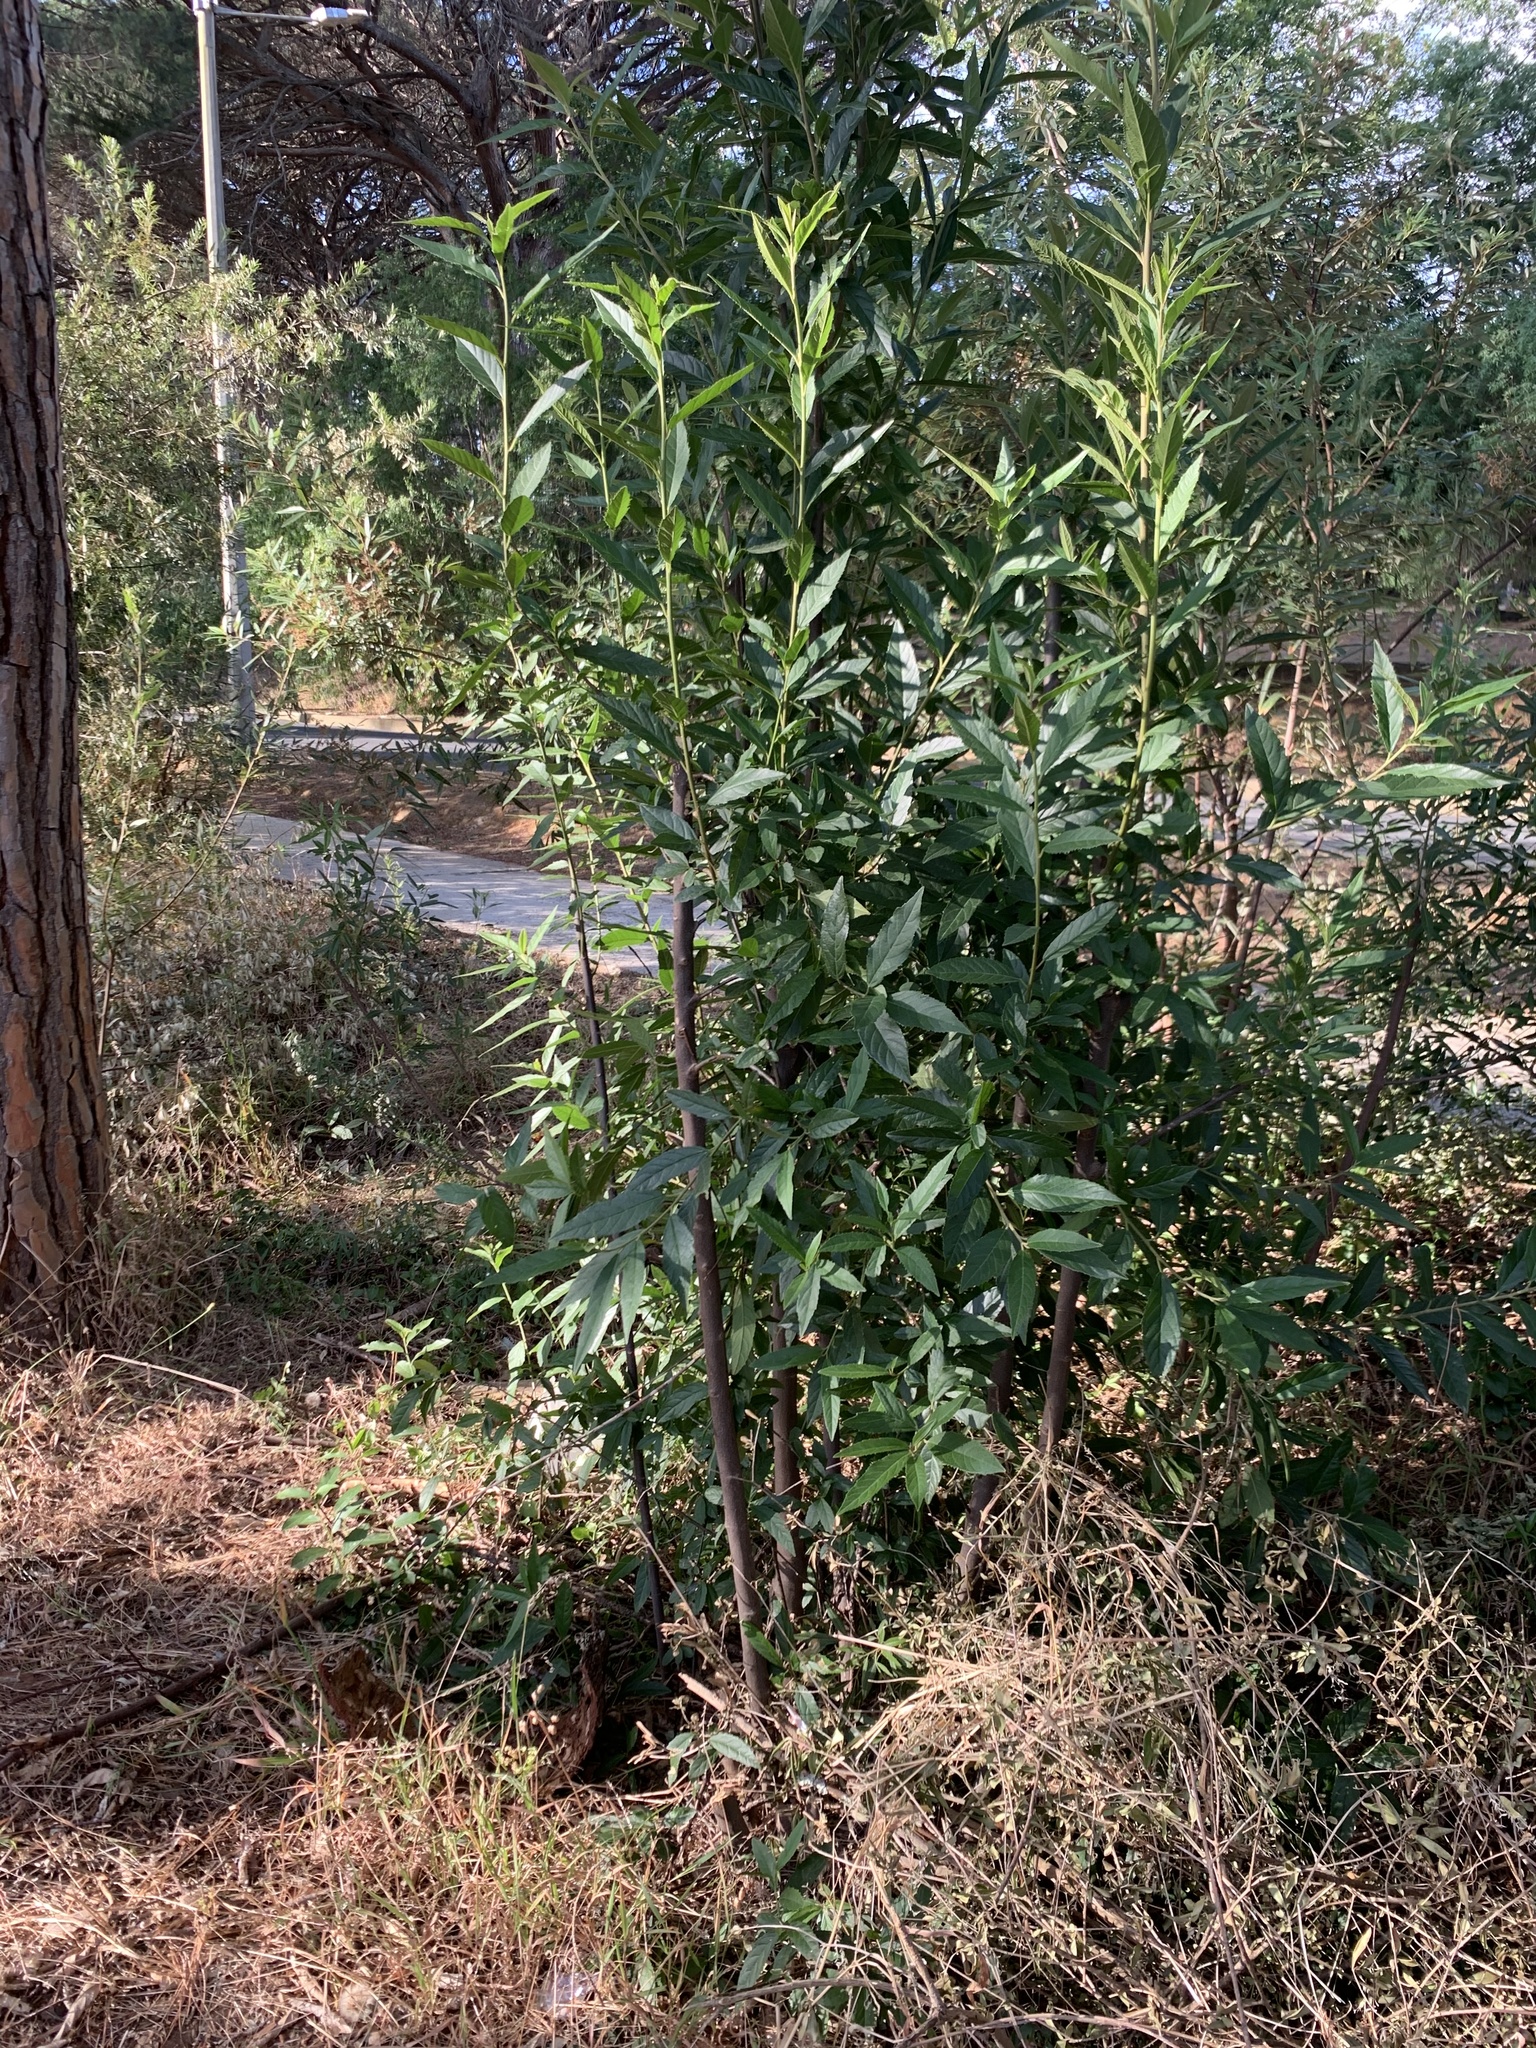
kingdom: Plantae
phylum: Tracheophyta
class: Magnoliopsida
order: Malpighiales
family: Achariaceae
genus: Kiggelaria
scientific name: Kiggelaria africana
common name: Wild peach
